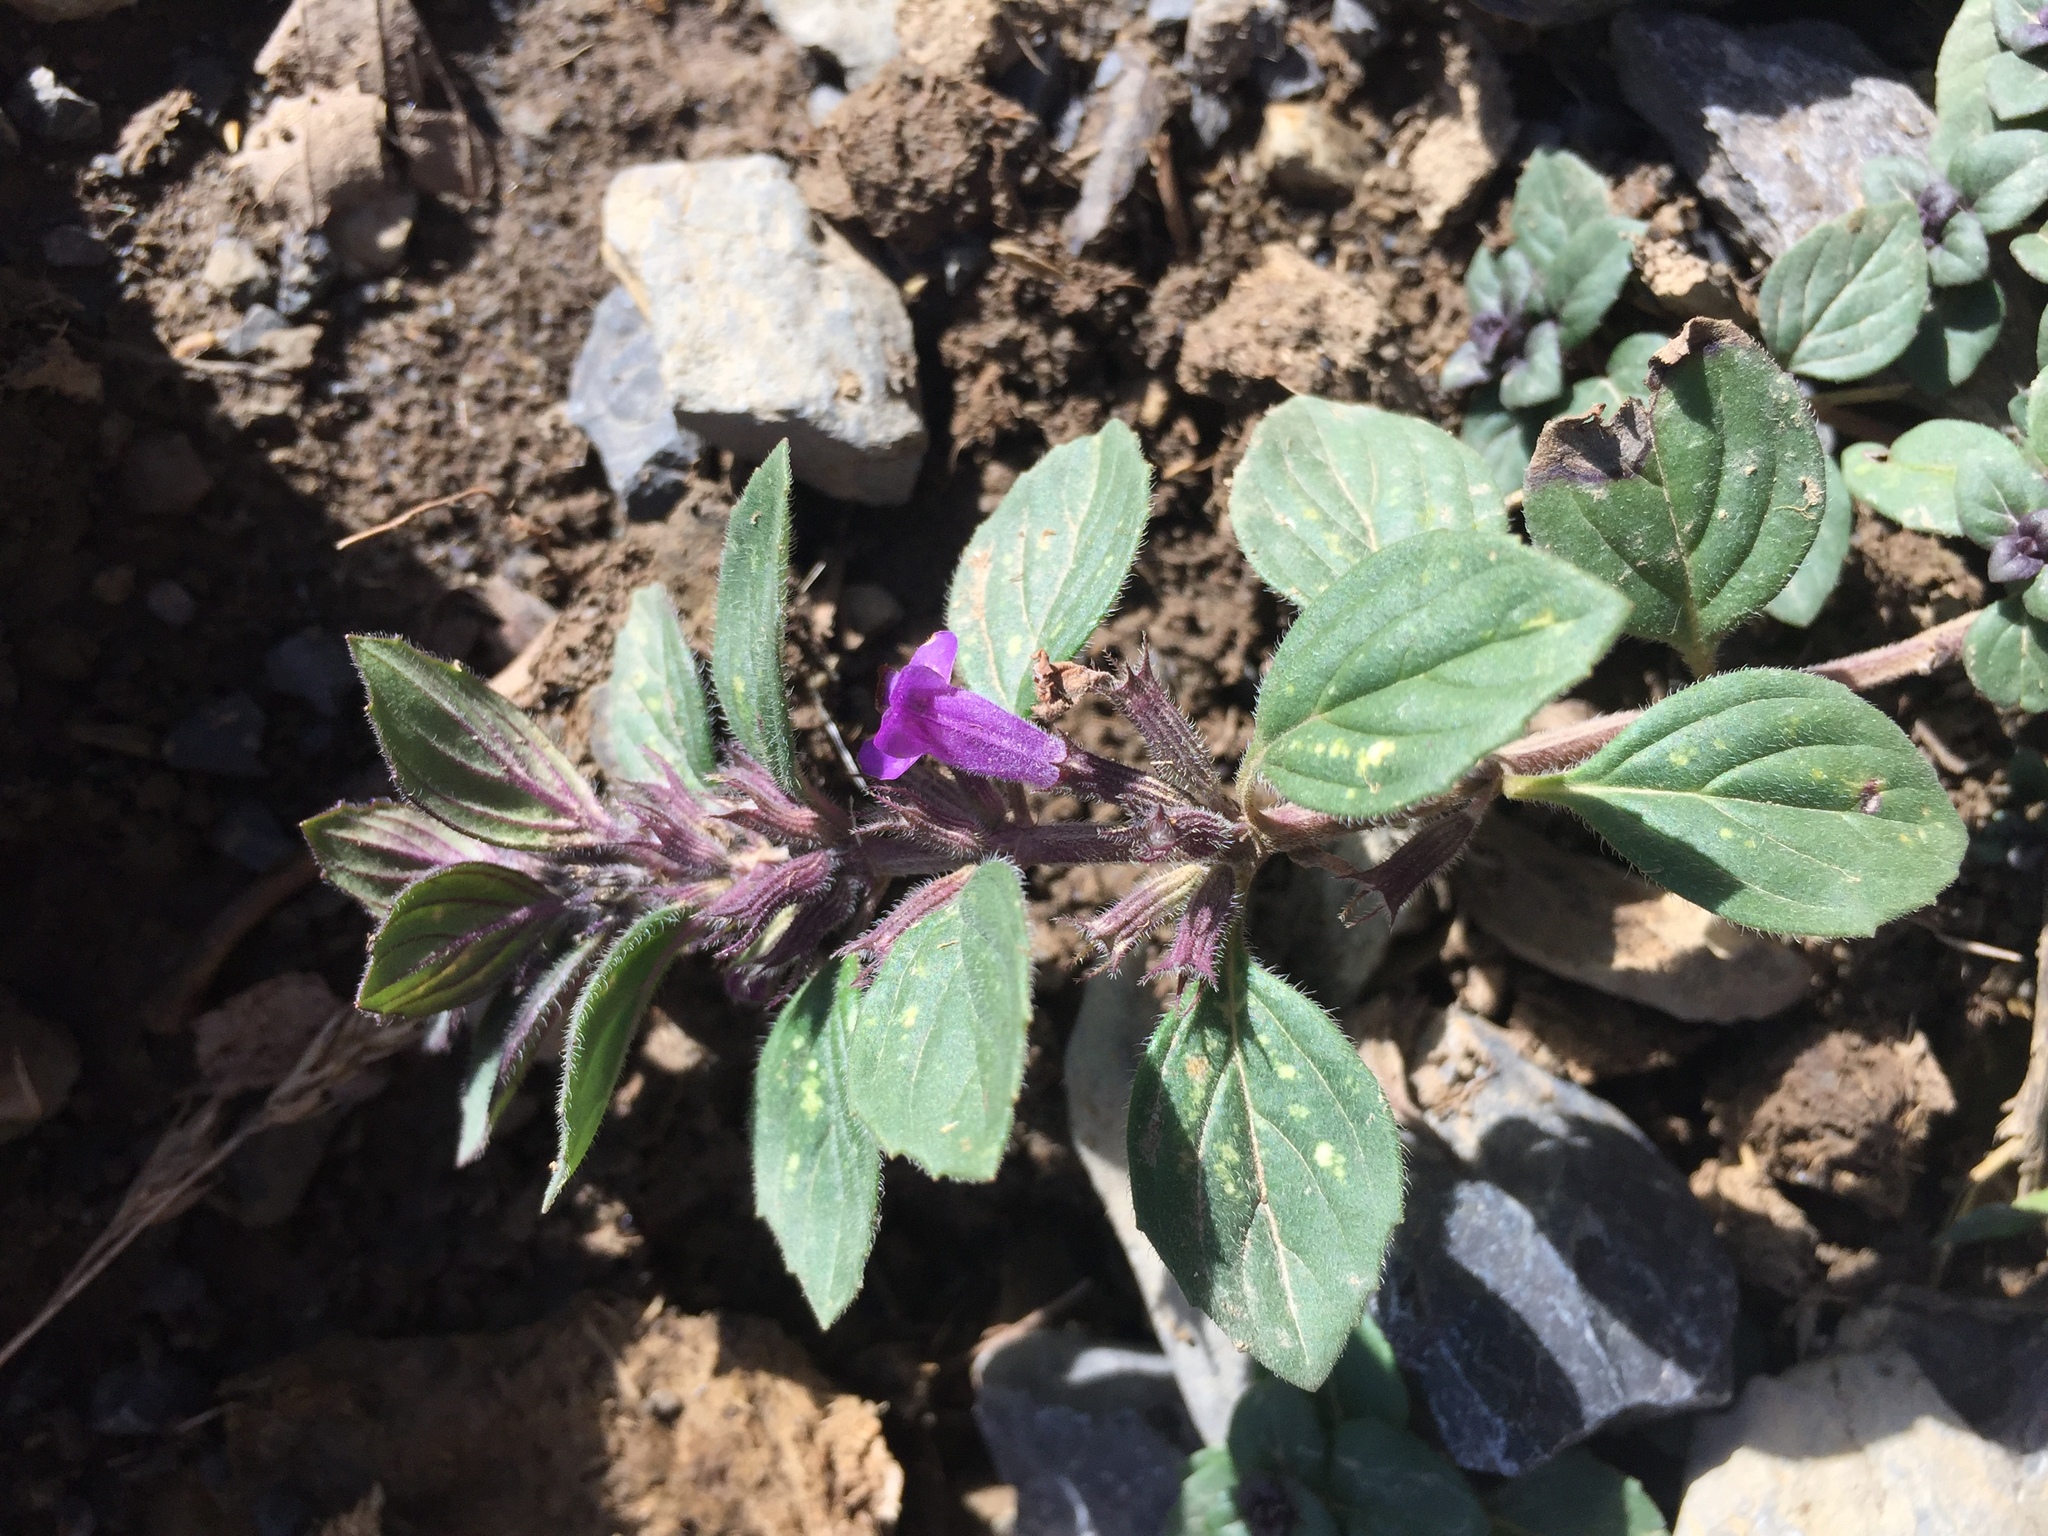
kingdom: Plantae
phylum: Tracheophyta
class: Magnoliopsida
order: Lamiales
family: Lamiaceae
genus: Clinopodium
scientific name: Clinopodium alpinum
